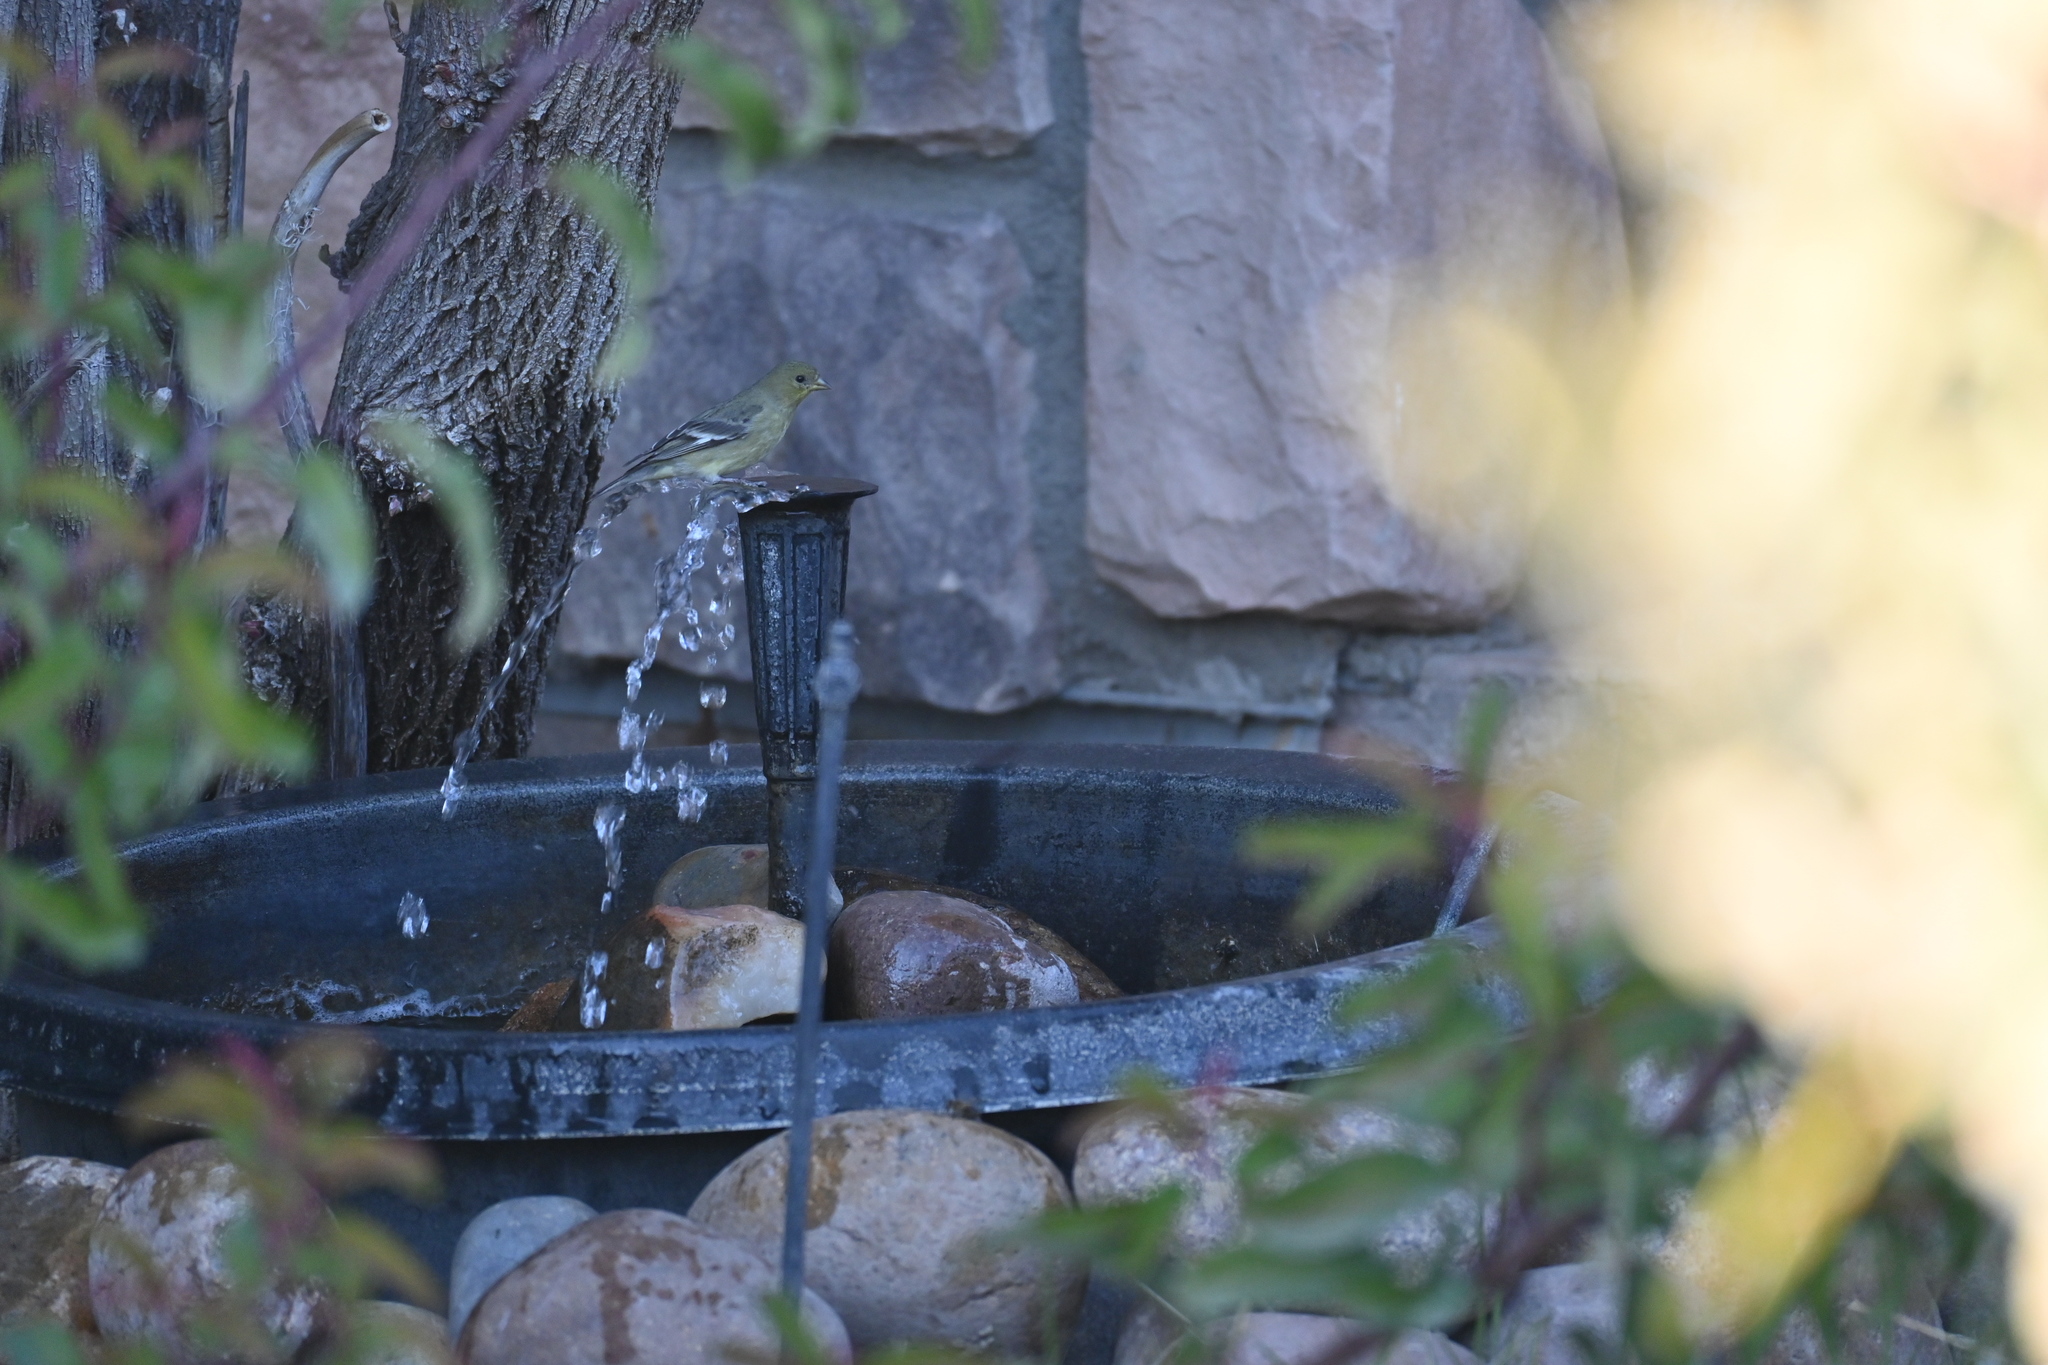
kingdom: Animalia
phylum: Chordata
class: Aves
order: Passeriformes
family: Fringillidae
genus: Spinus
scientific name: Spinus psaltria
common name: Lesser goldfinch
